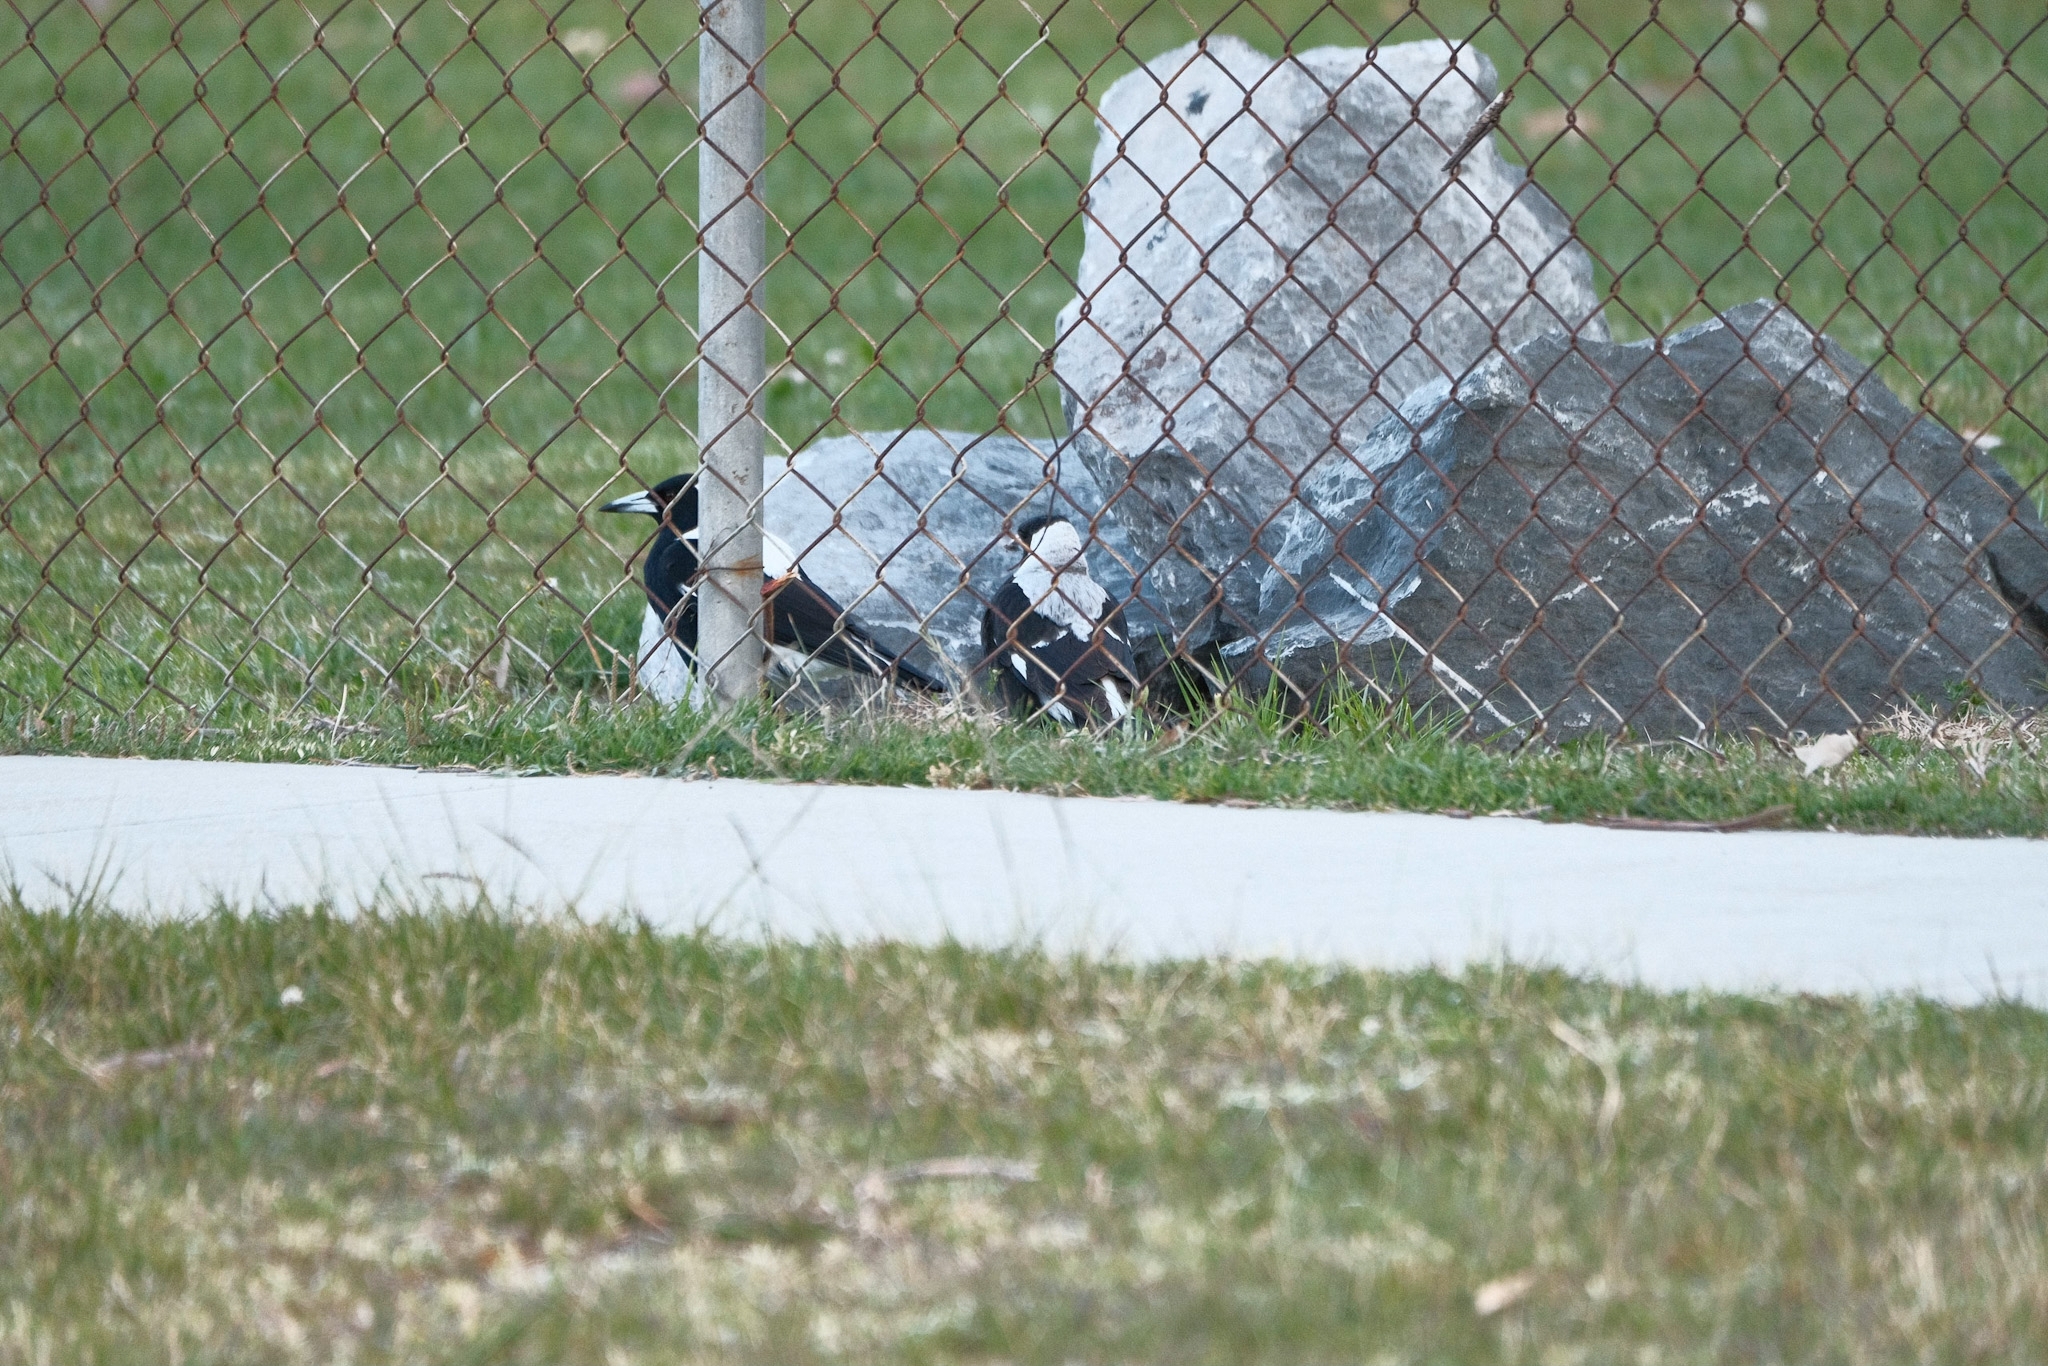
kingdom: Animalia
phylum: Chordata
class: Aves
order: Passeriformes
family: Cracticidae
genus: Gymnorhina
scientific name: Gymnorhina tibicen
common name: Australian magpie
